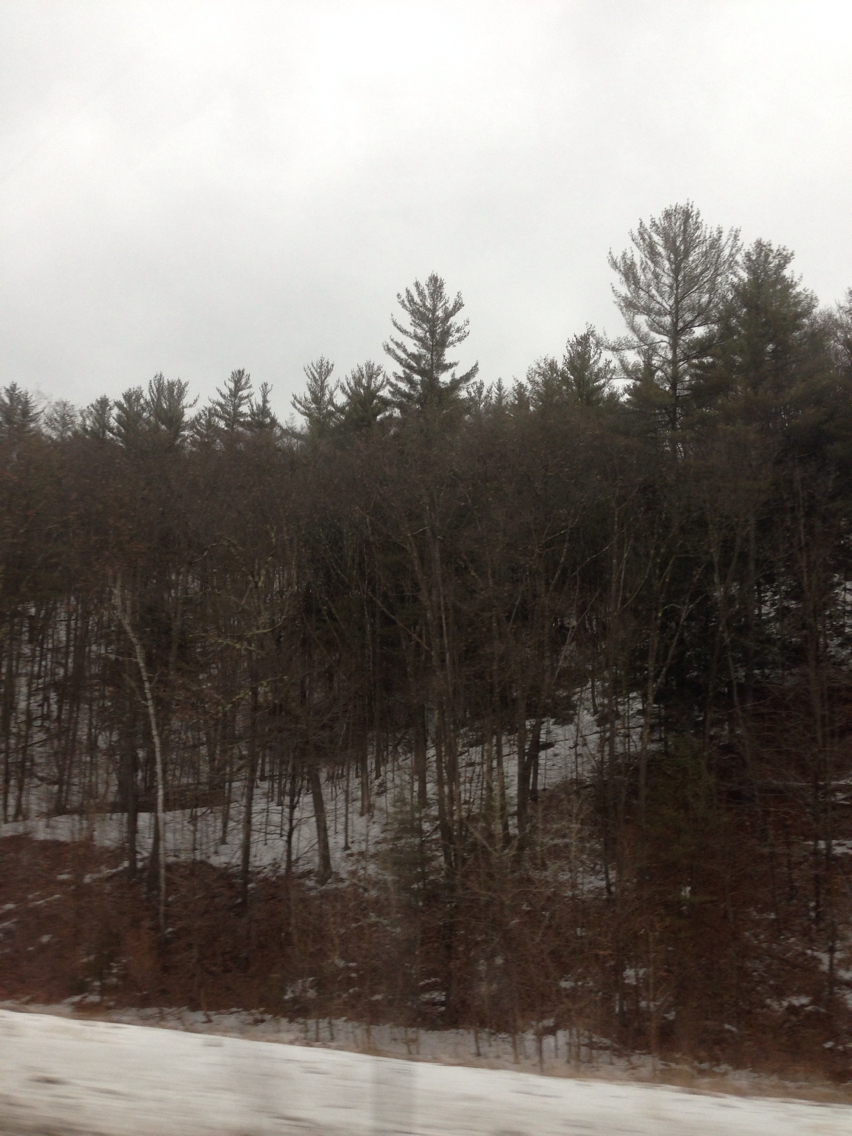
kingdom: Plantae
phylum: Tracheophyta
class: Pinopsida
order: Pinales
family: Pinaceae
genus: Pinus
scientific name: Pinus strobus
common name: Weymouth pine
